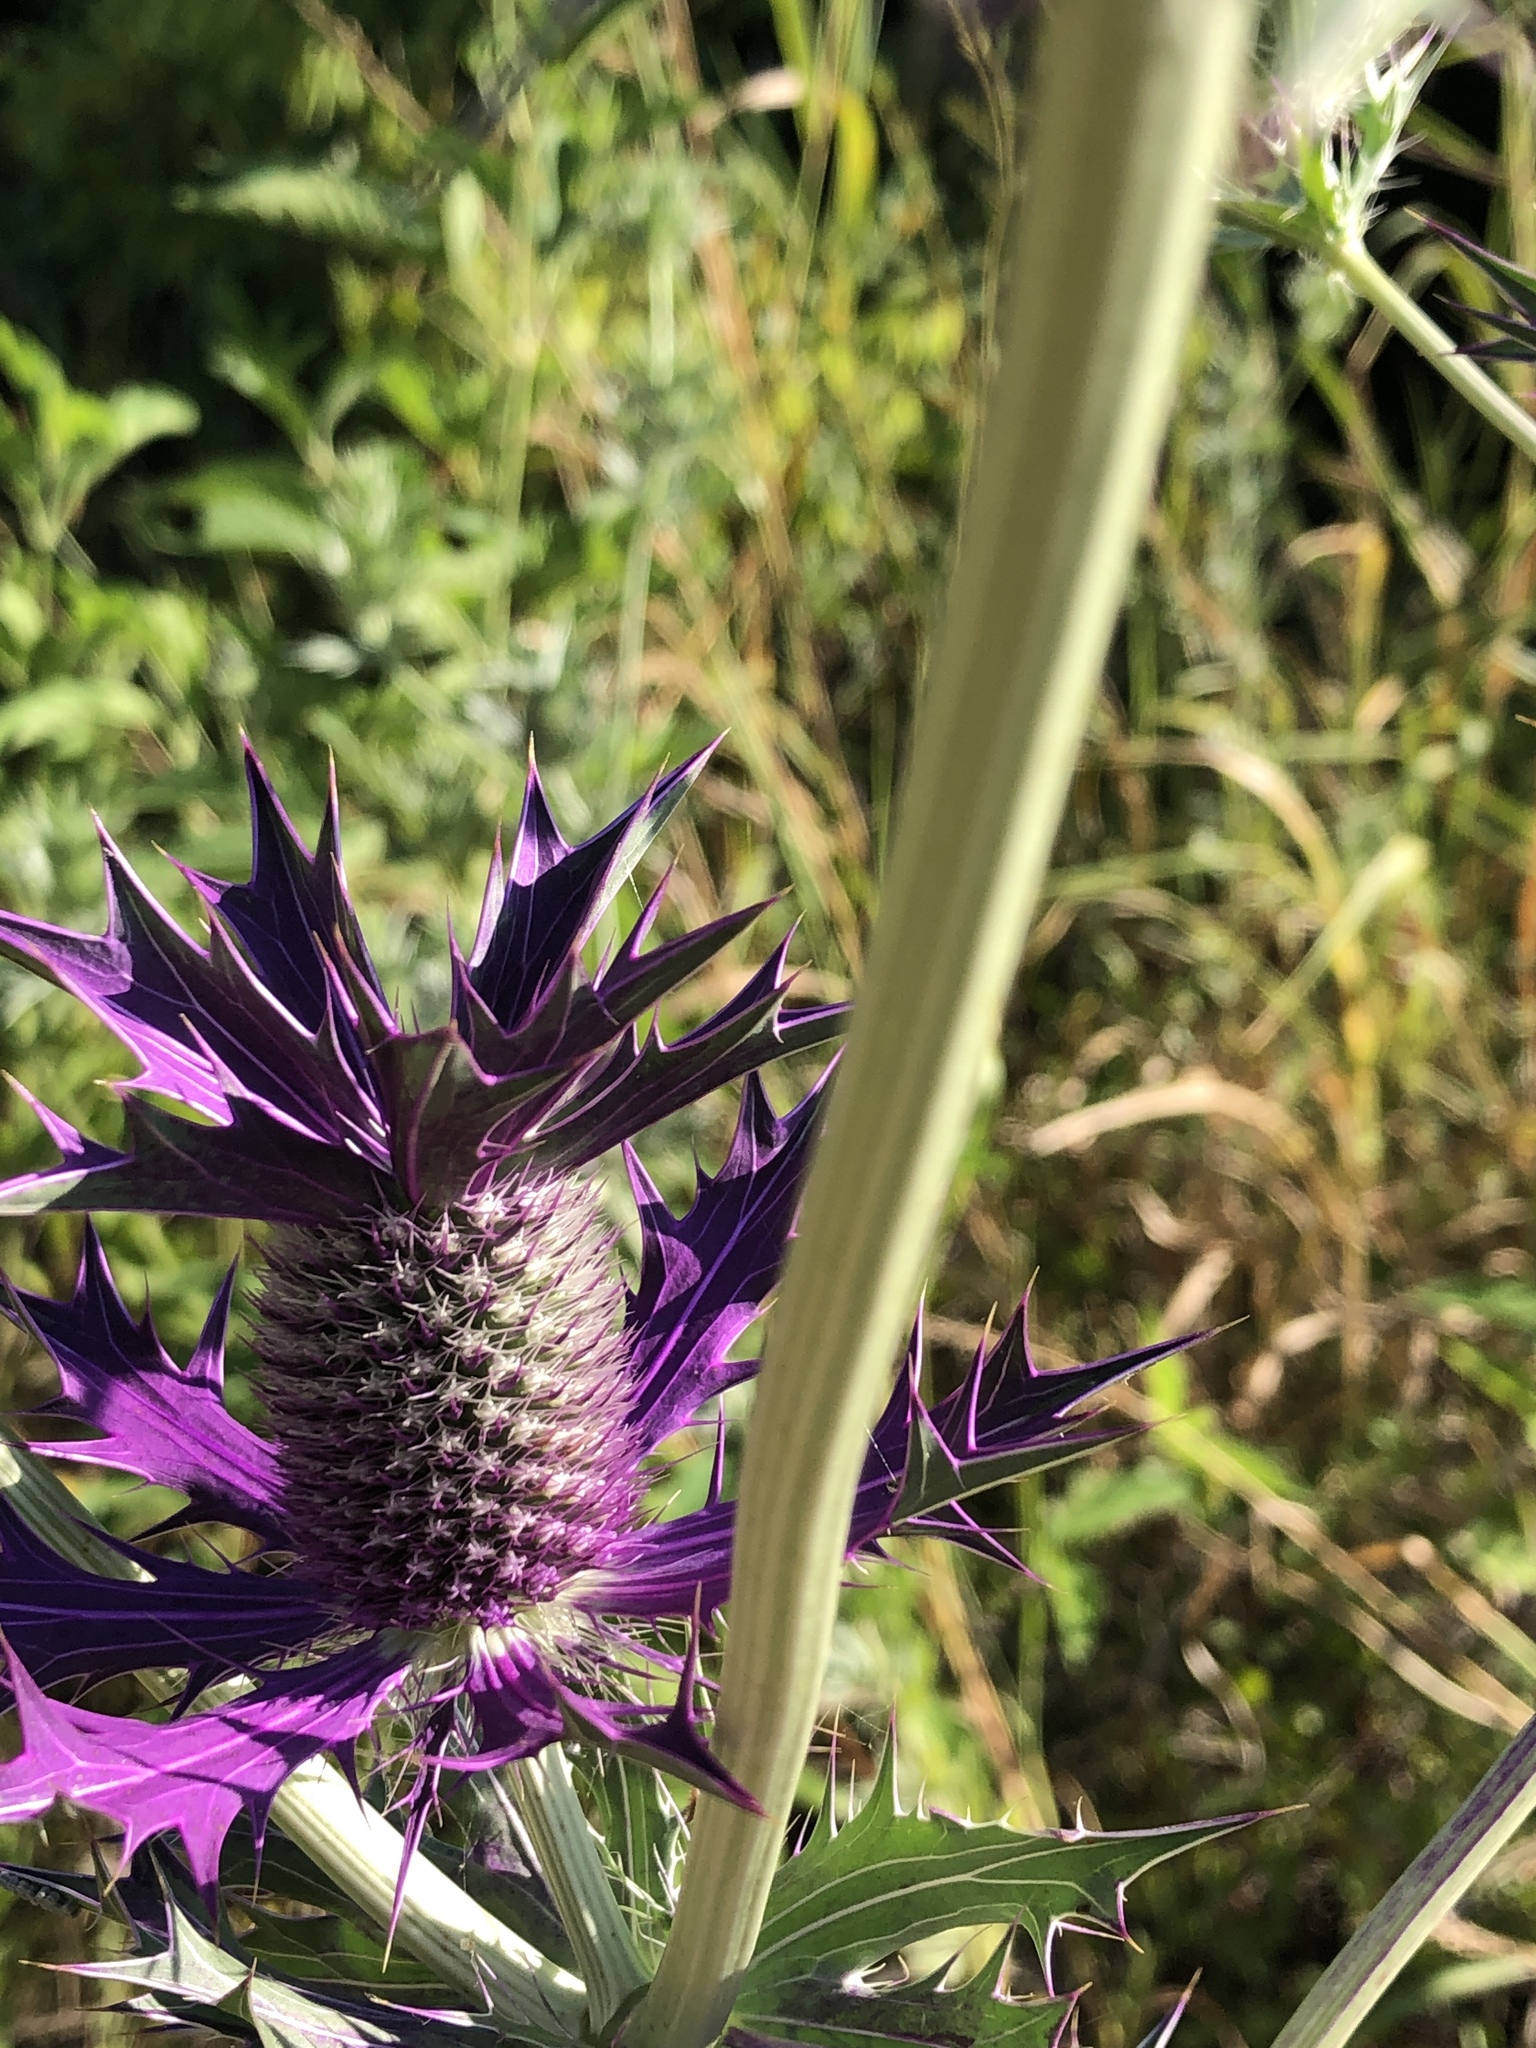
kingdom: Plantae
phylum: Tracheophyta
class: Magnoliopsida
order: Apiales
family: Apiaceae
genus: Eryngium
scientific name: Eryngium leavenworthii
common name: Leavenworth's eryngo
